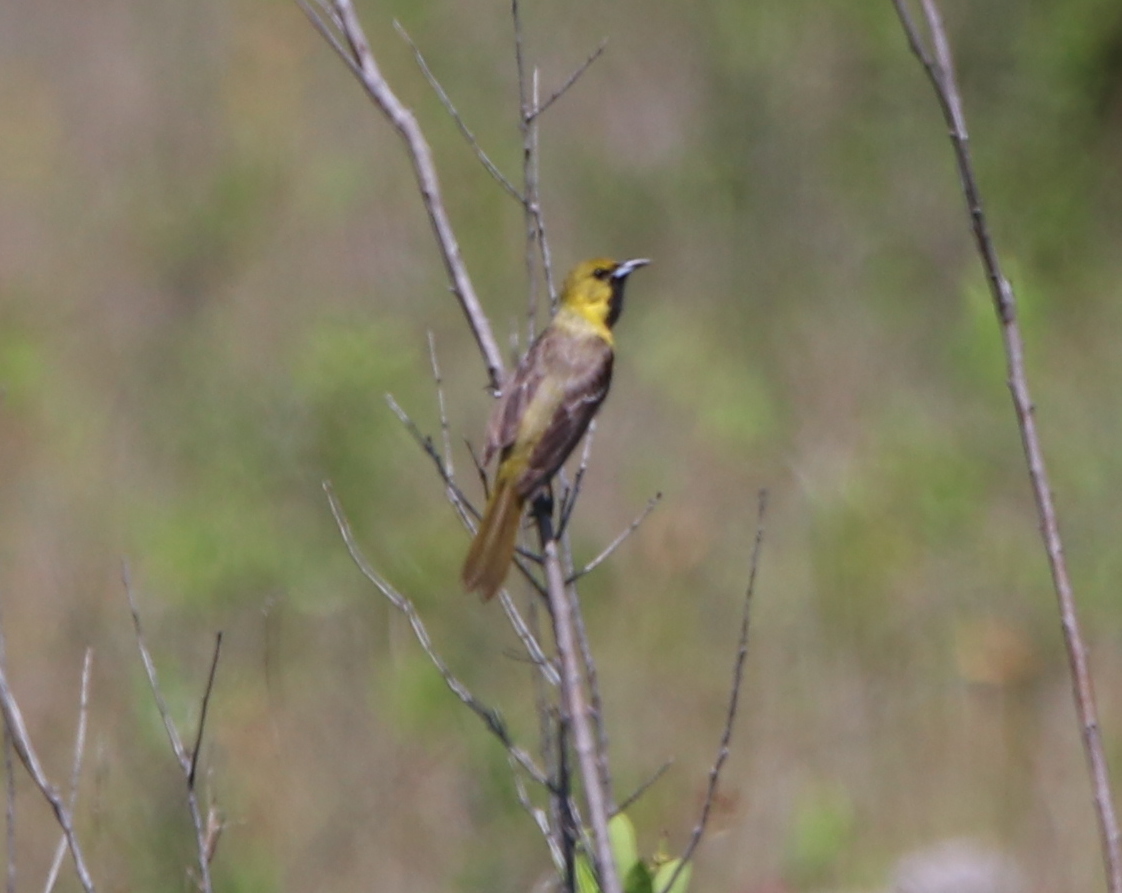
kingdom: Animalia
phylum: Chordata
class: Aves
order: Passeriformes
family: Icteridae
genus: Icterus
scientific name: Icterus spurius
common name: Orchard oriole
